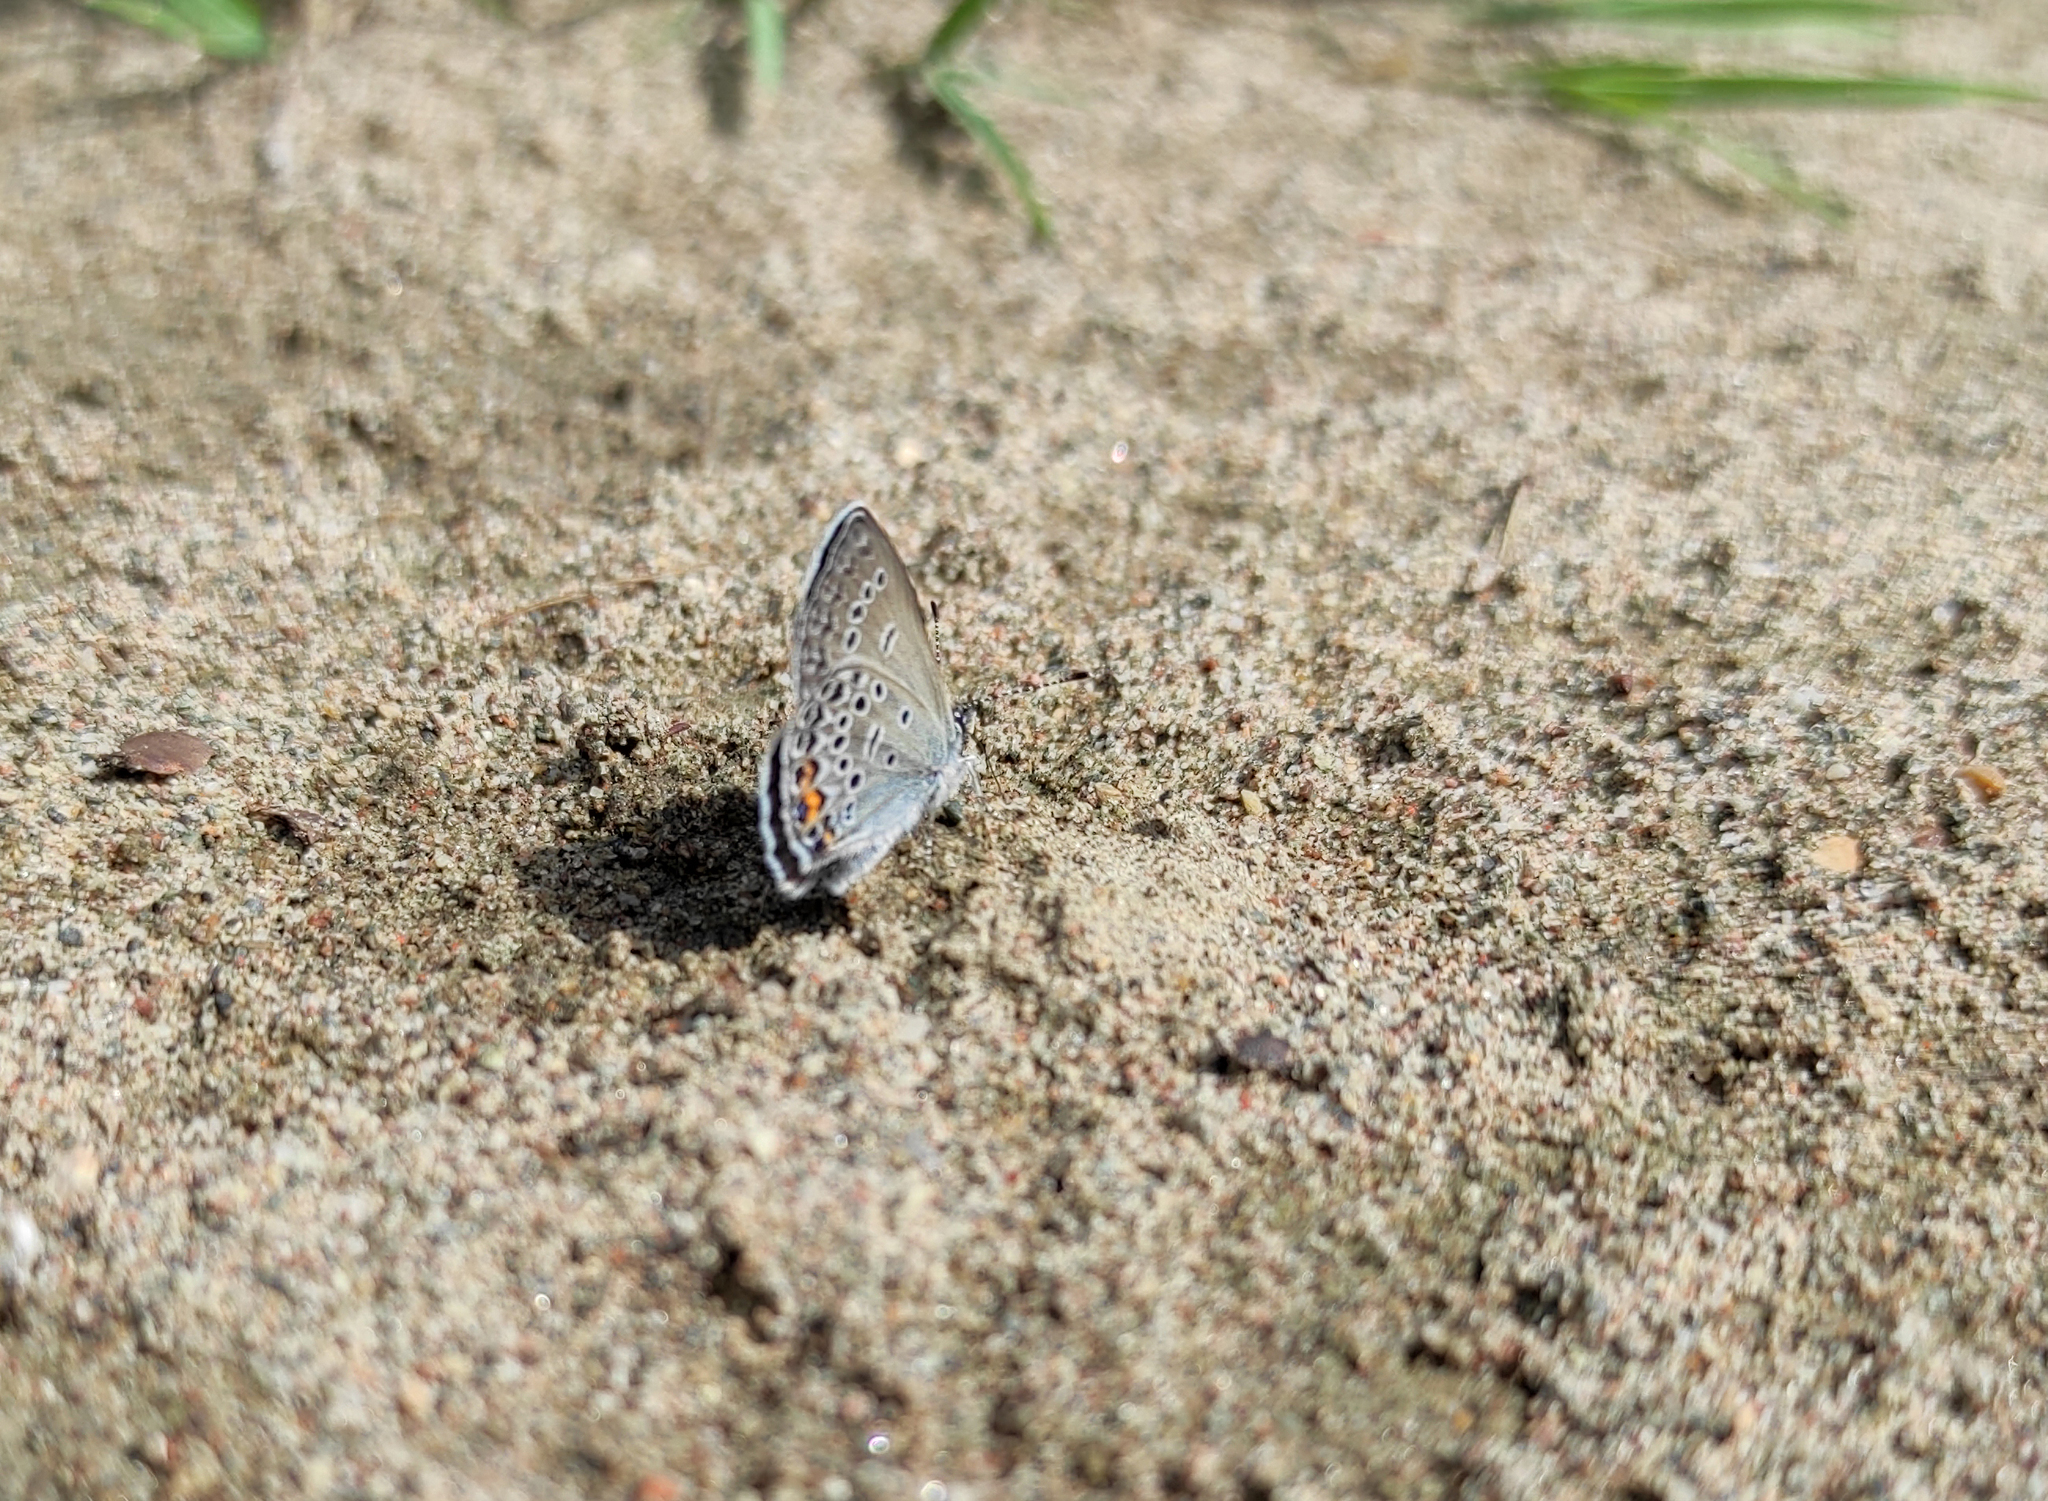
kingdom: Animalia
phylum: Arthropoda
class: Insecta
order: Lepidoptera
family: Lycaenidae
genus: Vacciniina
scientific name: Vacciniina optilete
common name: Cranberry blue
